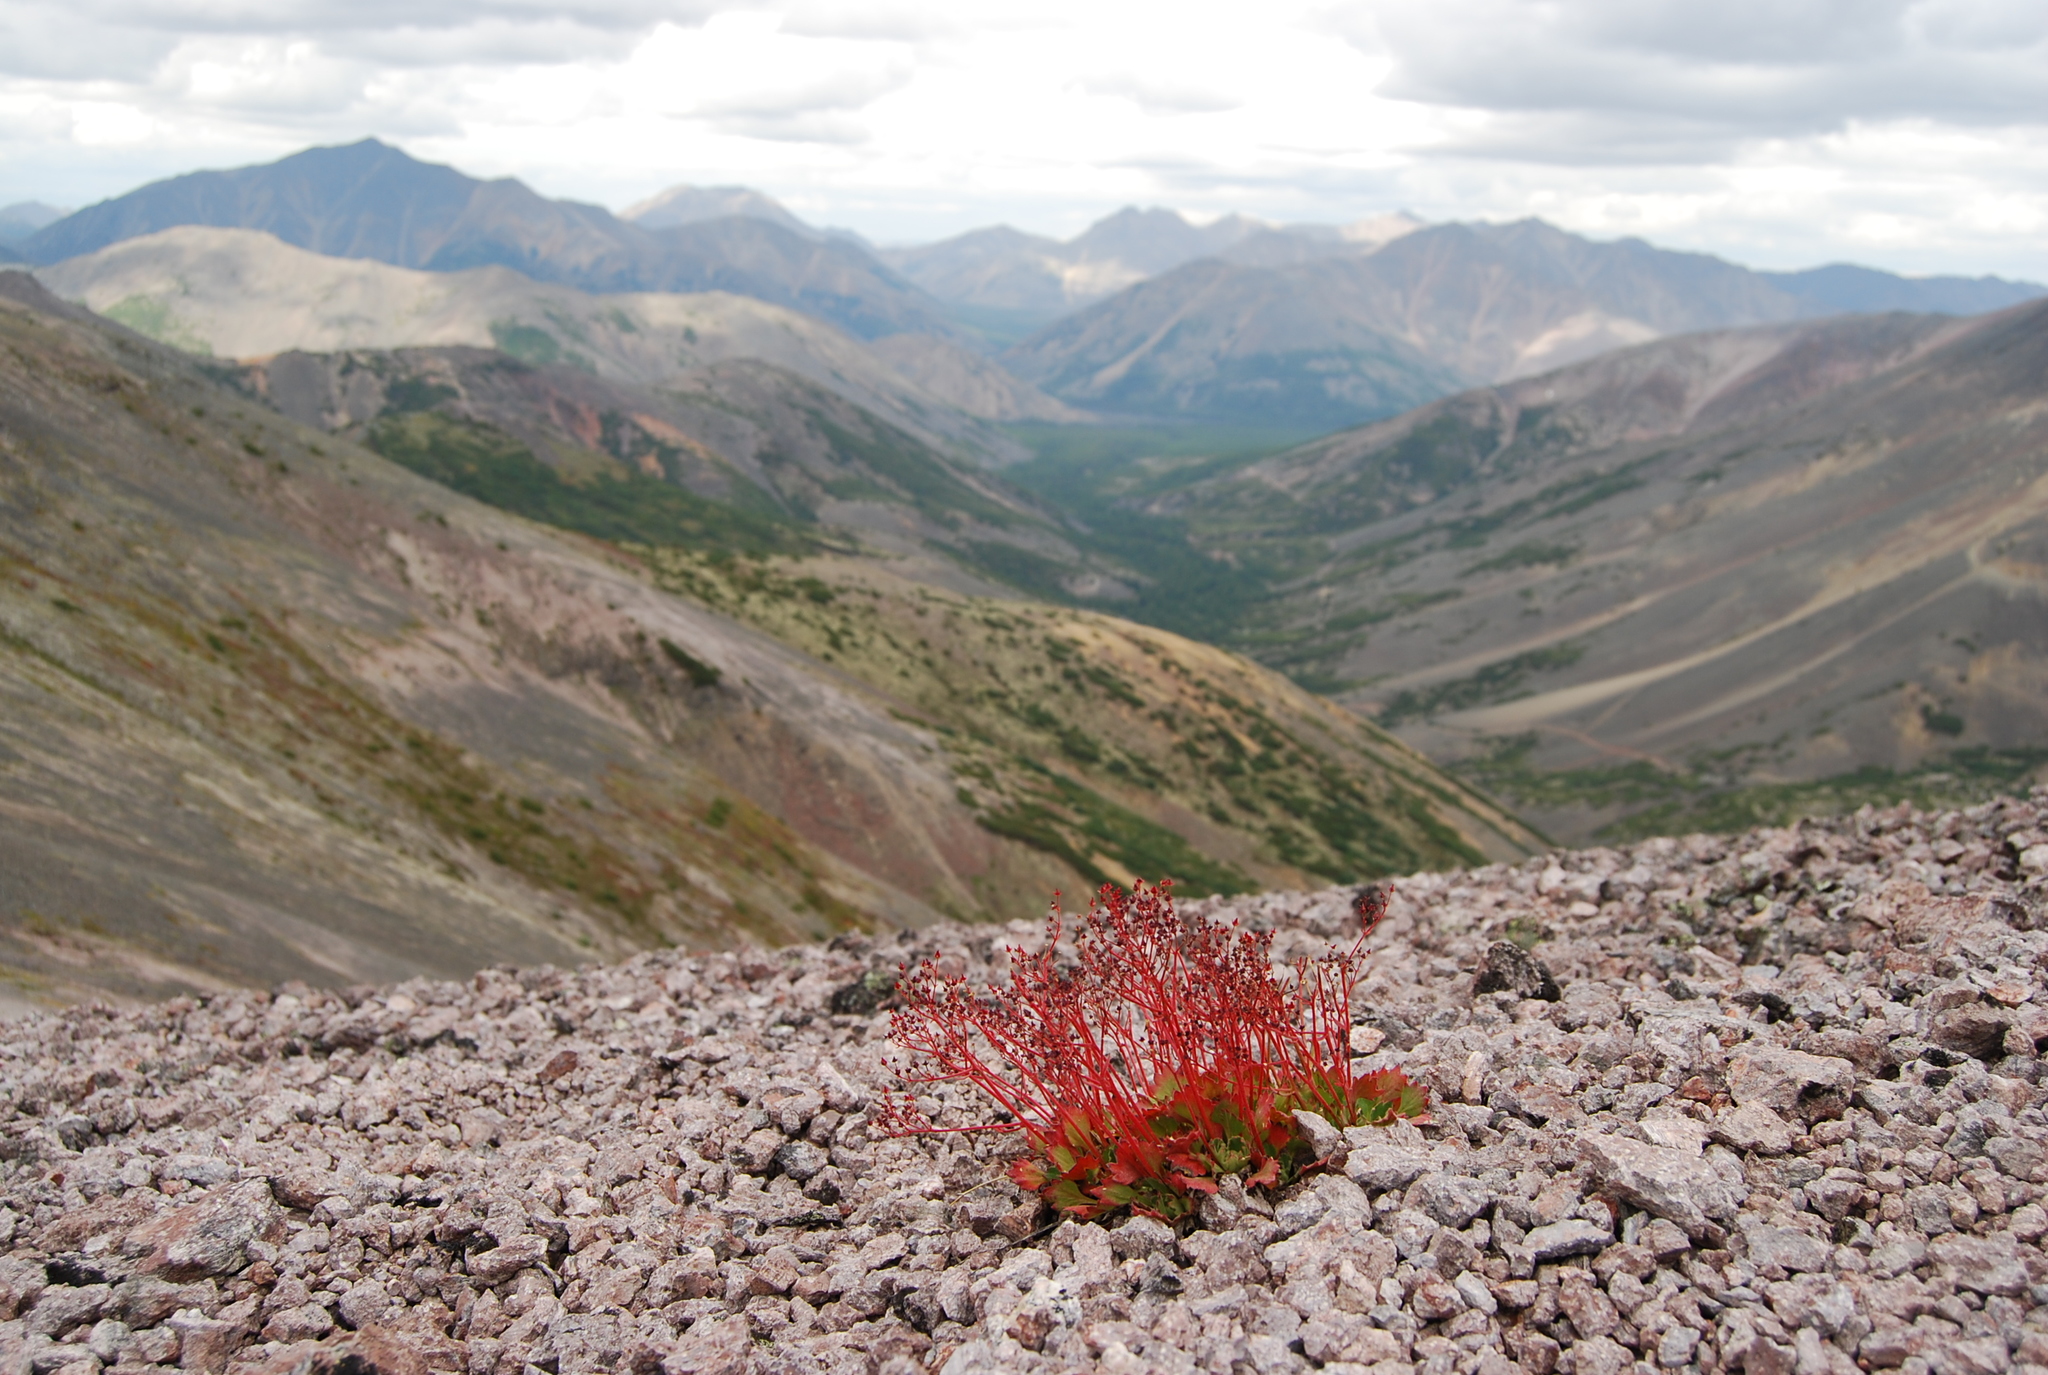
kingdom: Plantae
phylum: Tracheophyta
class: Magnoliopsida
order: Saxifragales
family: Saxifragaceae
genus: Micranthes
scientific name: Micranthes punctata
